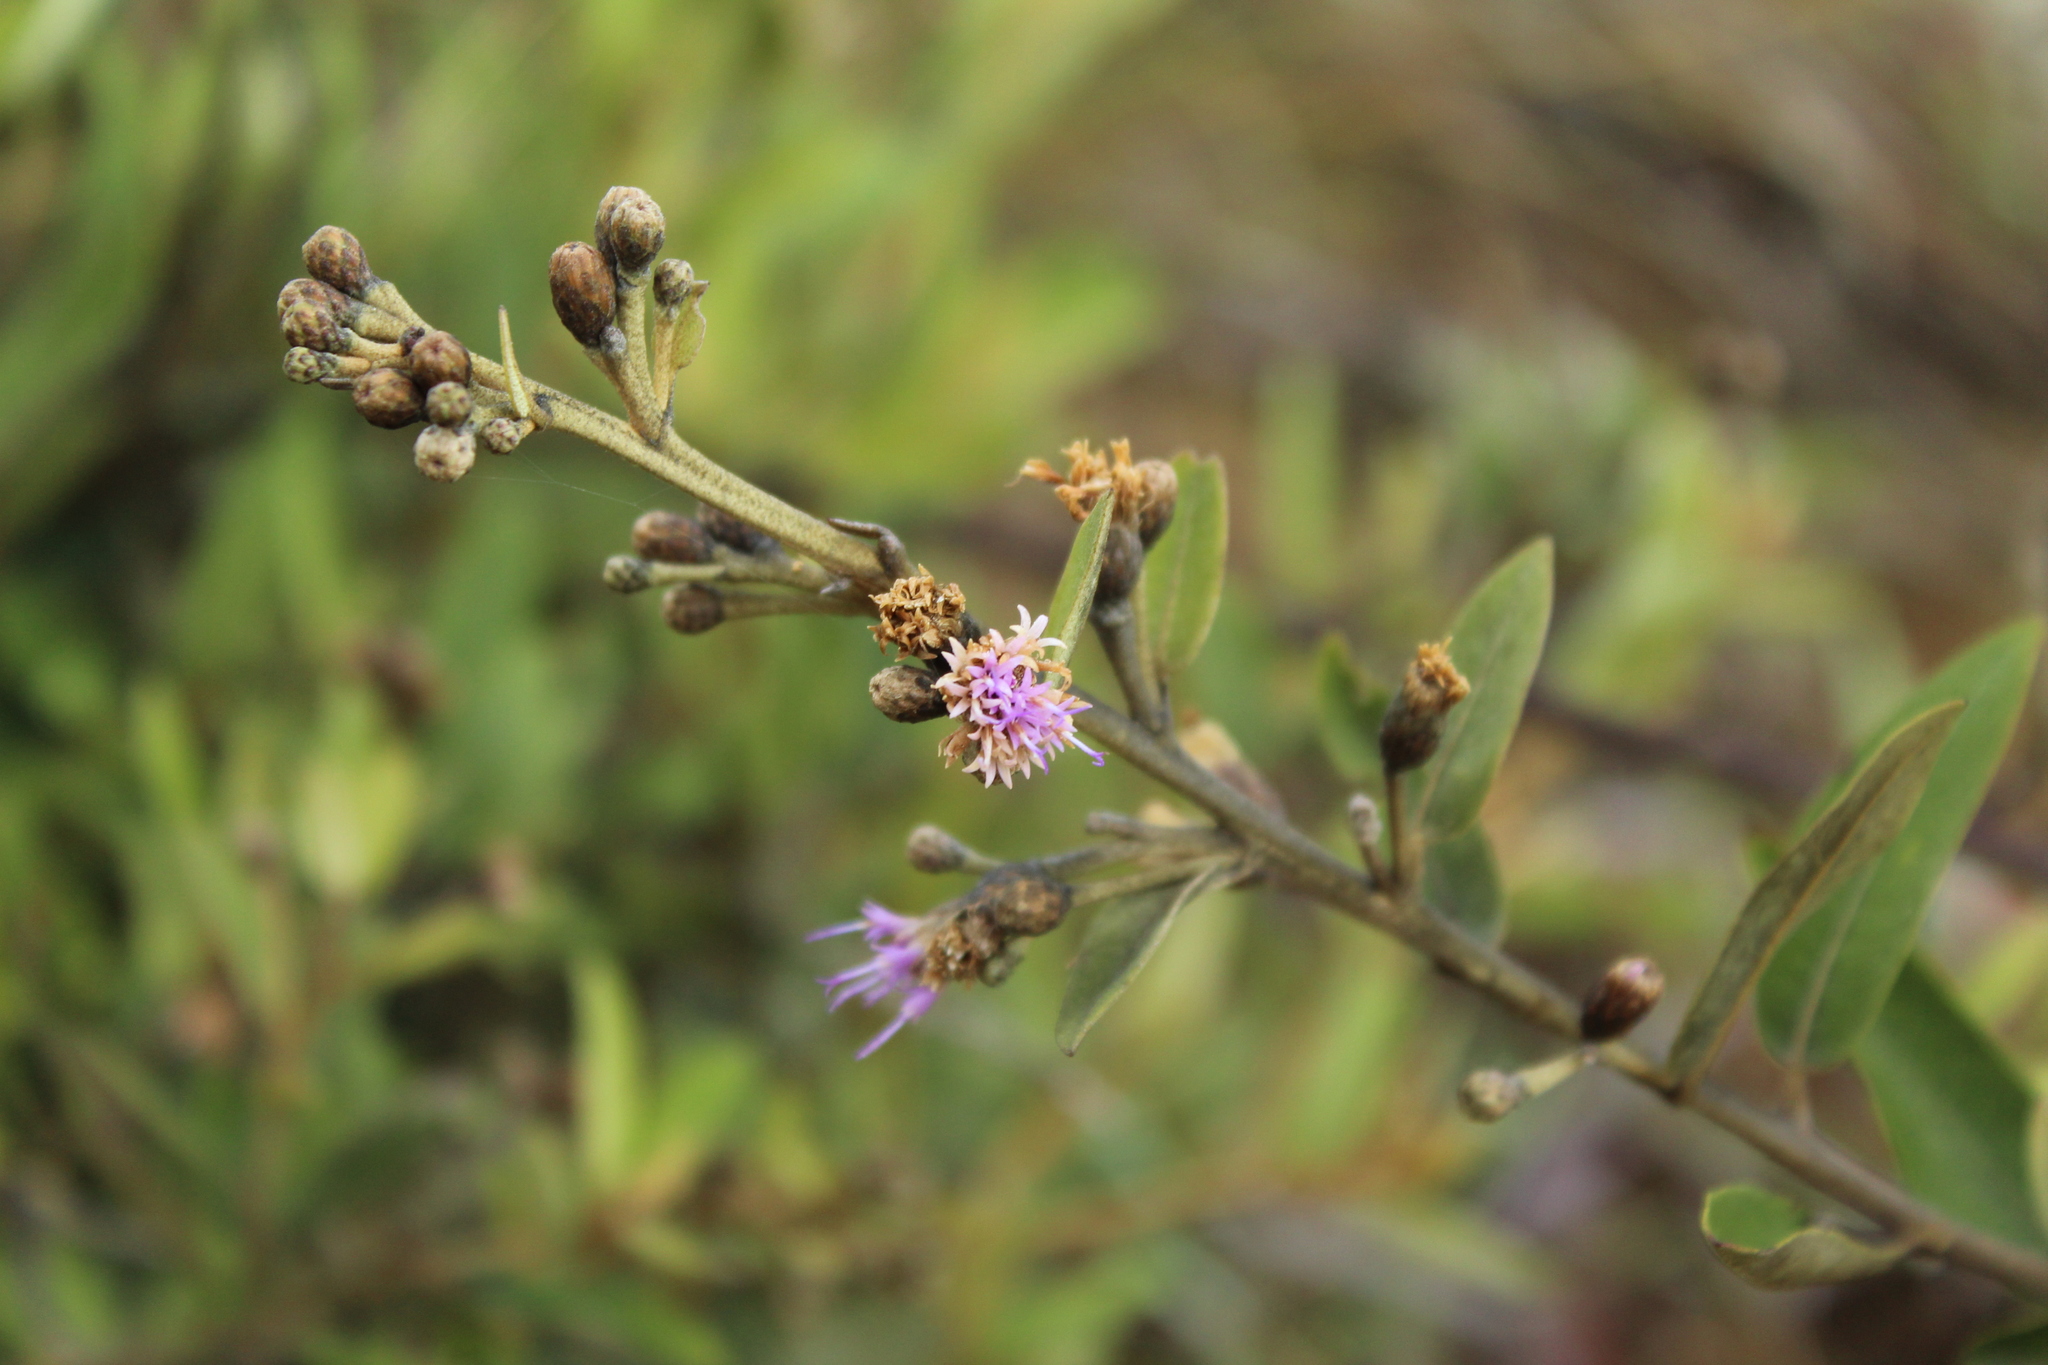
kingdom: Plantae
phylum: Tracheophyta
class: Magnoliopsida
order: Asterales
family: Asteraceae
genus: Lepidaploa
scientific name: Lepidaploa karstenii
